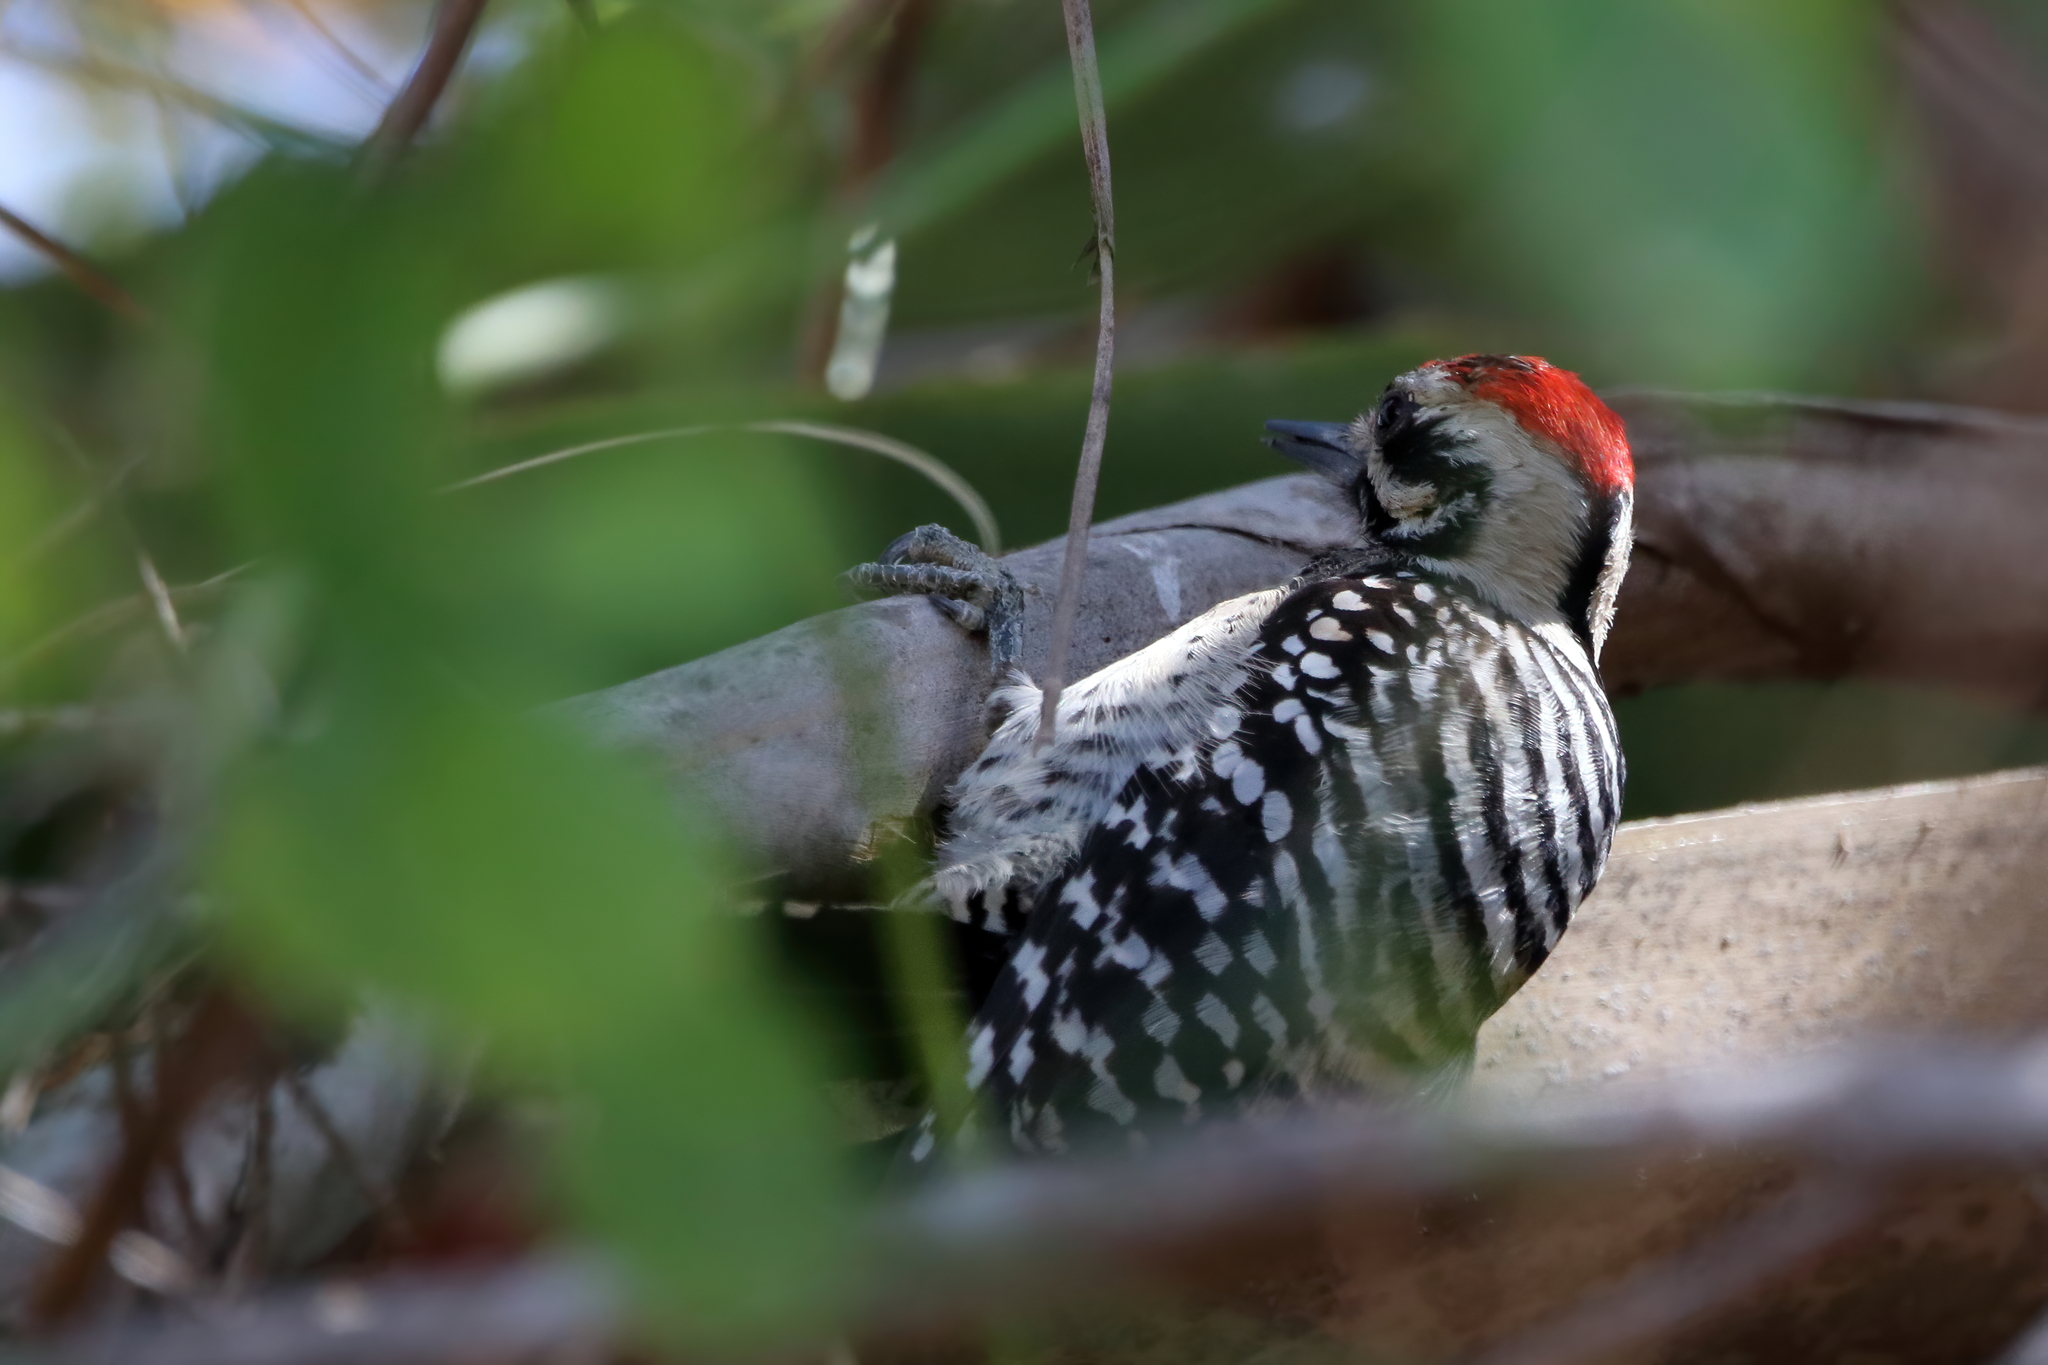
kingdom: Animalia
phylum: Chordata
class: Aves
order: Piciformes
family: Picidae
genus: Dryobates
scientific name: Dryobates scalaris
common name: Ladder-backed woodpecker
